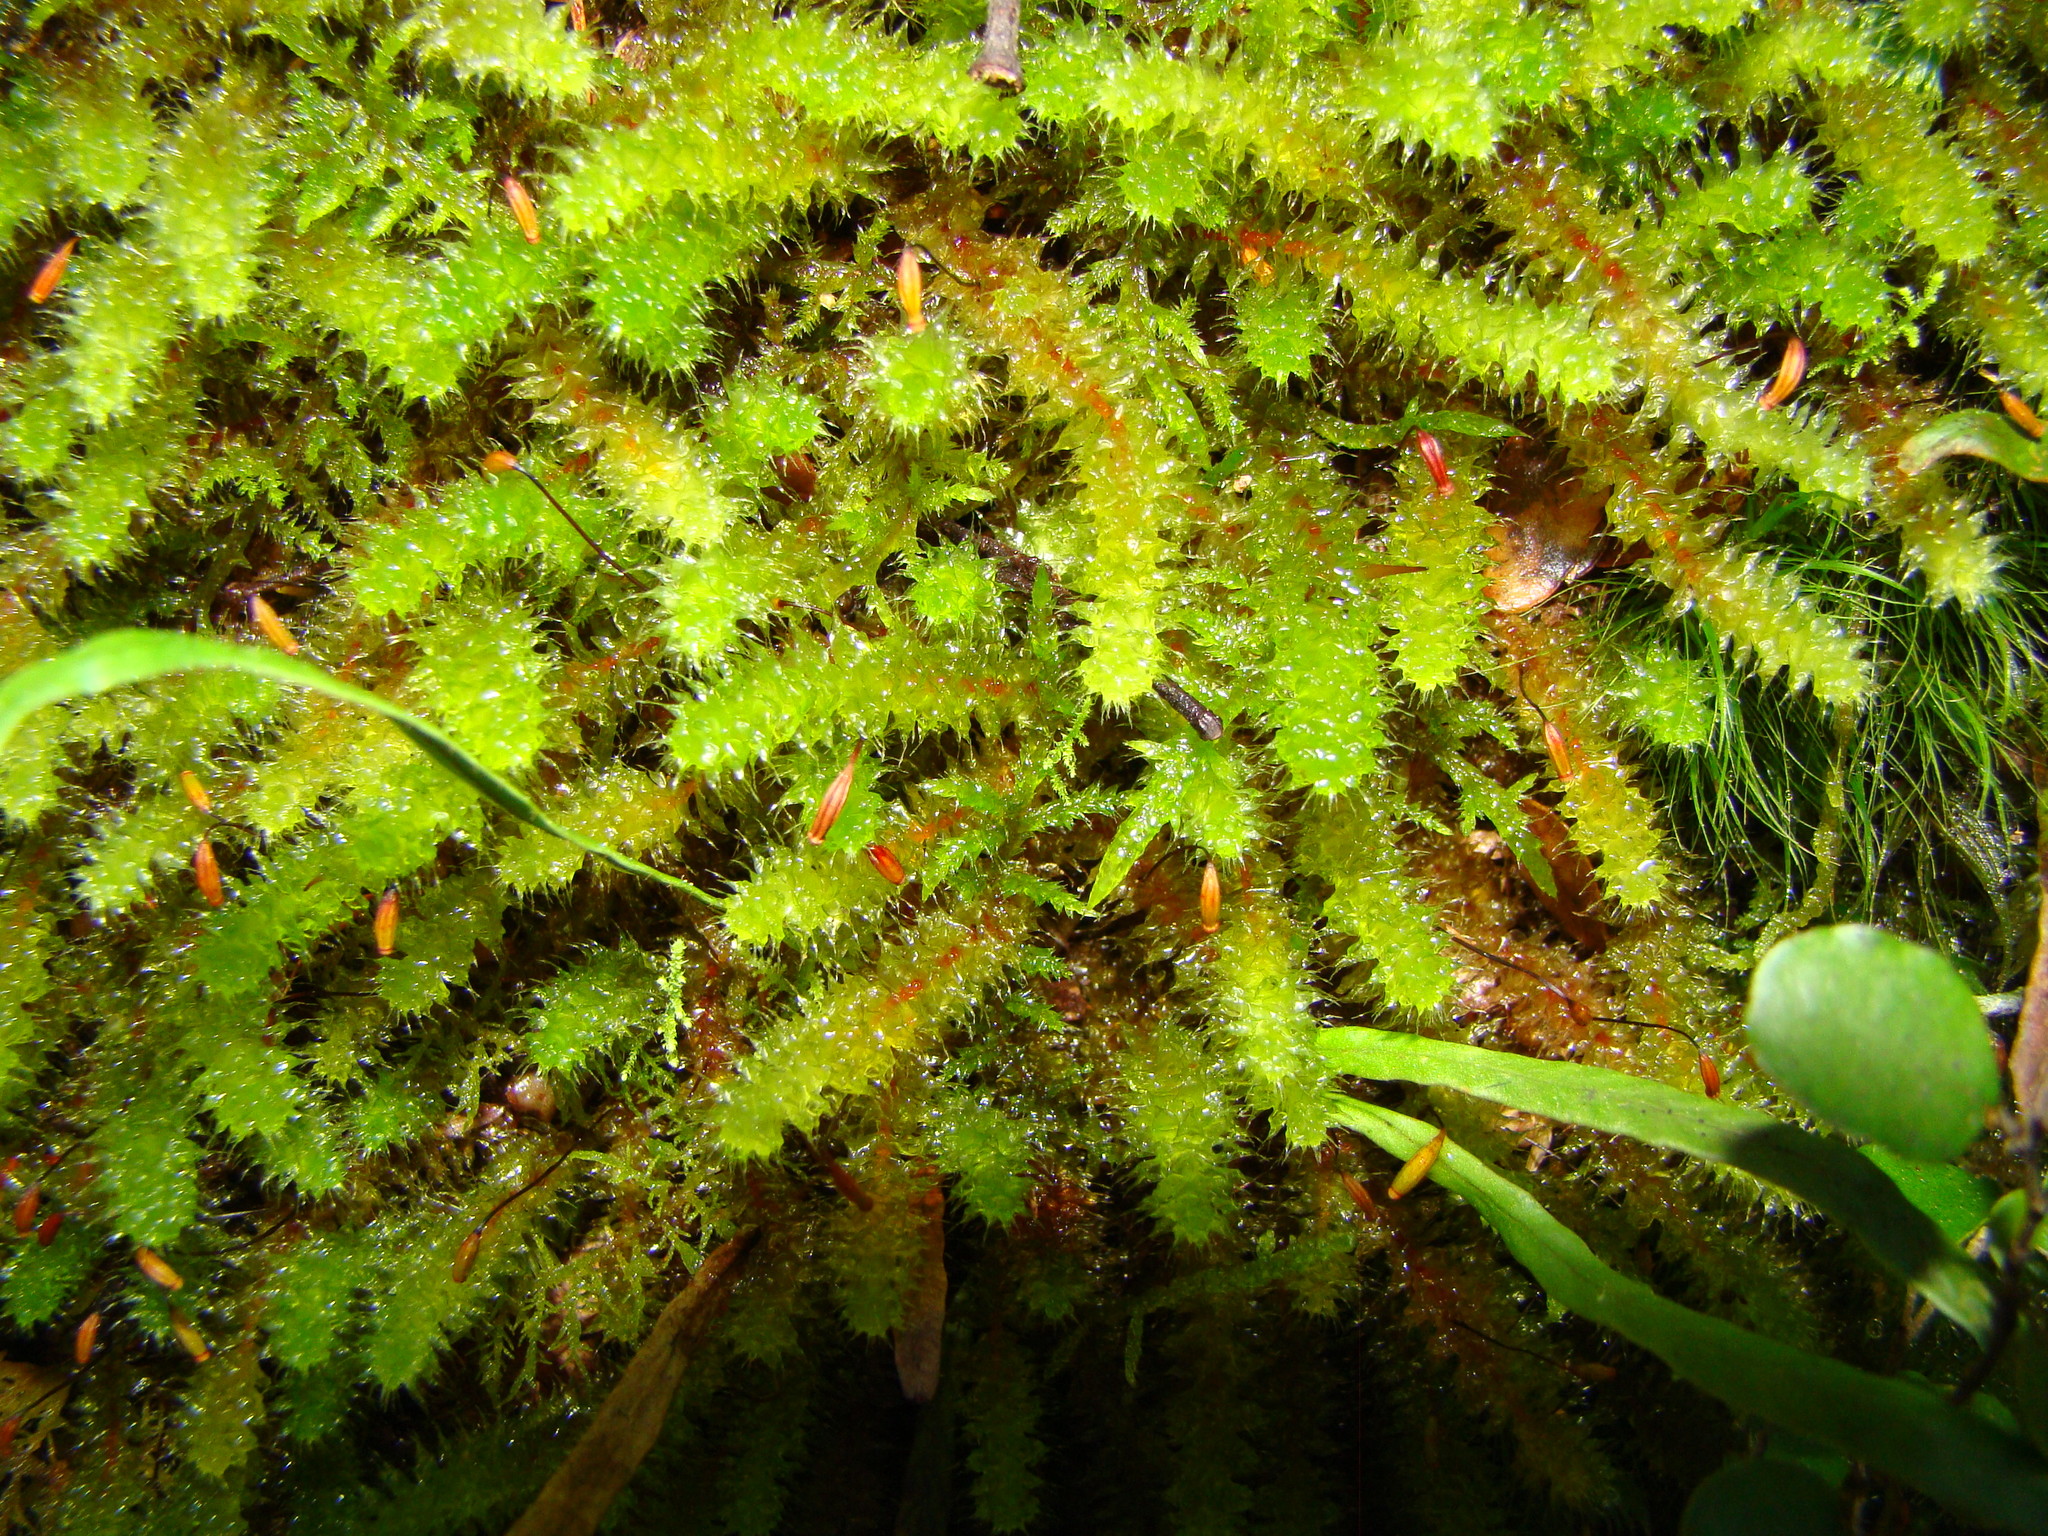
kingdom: Plantae
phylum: Bryophyta
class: Bryopsida
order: Ptychomniales
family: Ptychomniaceae
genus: Ptychomnion
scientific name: Ptychomnion aciculare
